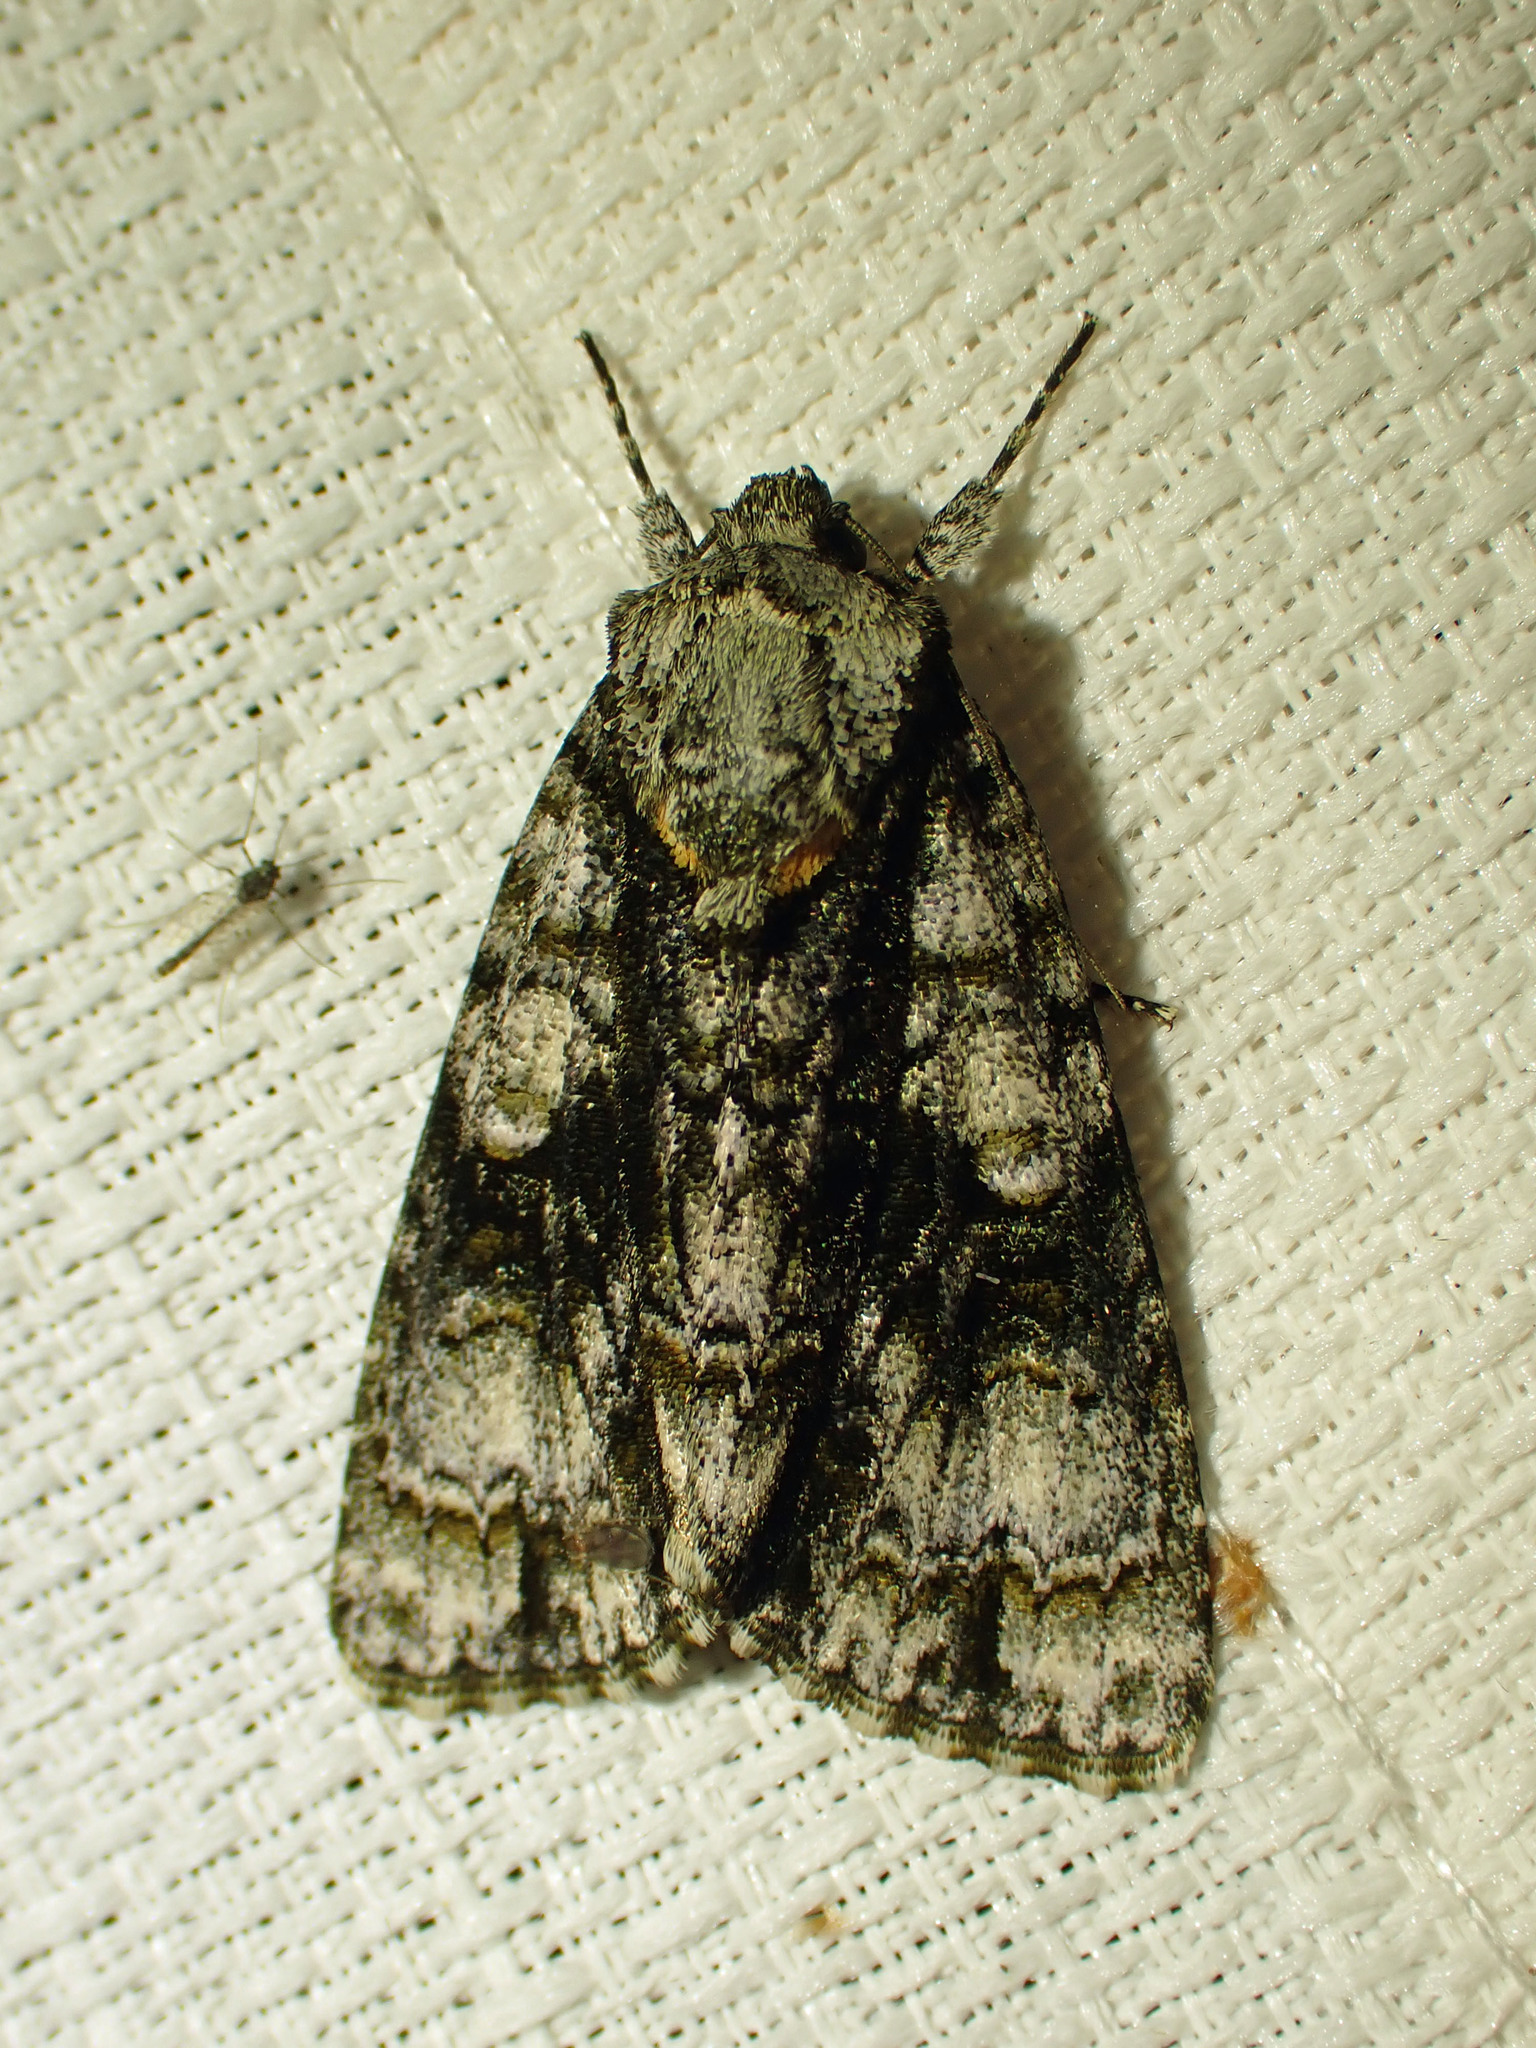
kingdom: Animalia
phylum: Arthropoda
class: Insecta
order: Lepidoptera
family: Noctuidae
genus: Acronicta
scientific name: Acronicta superans
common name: Splendid dagger
